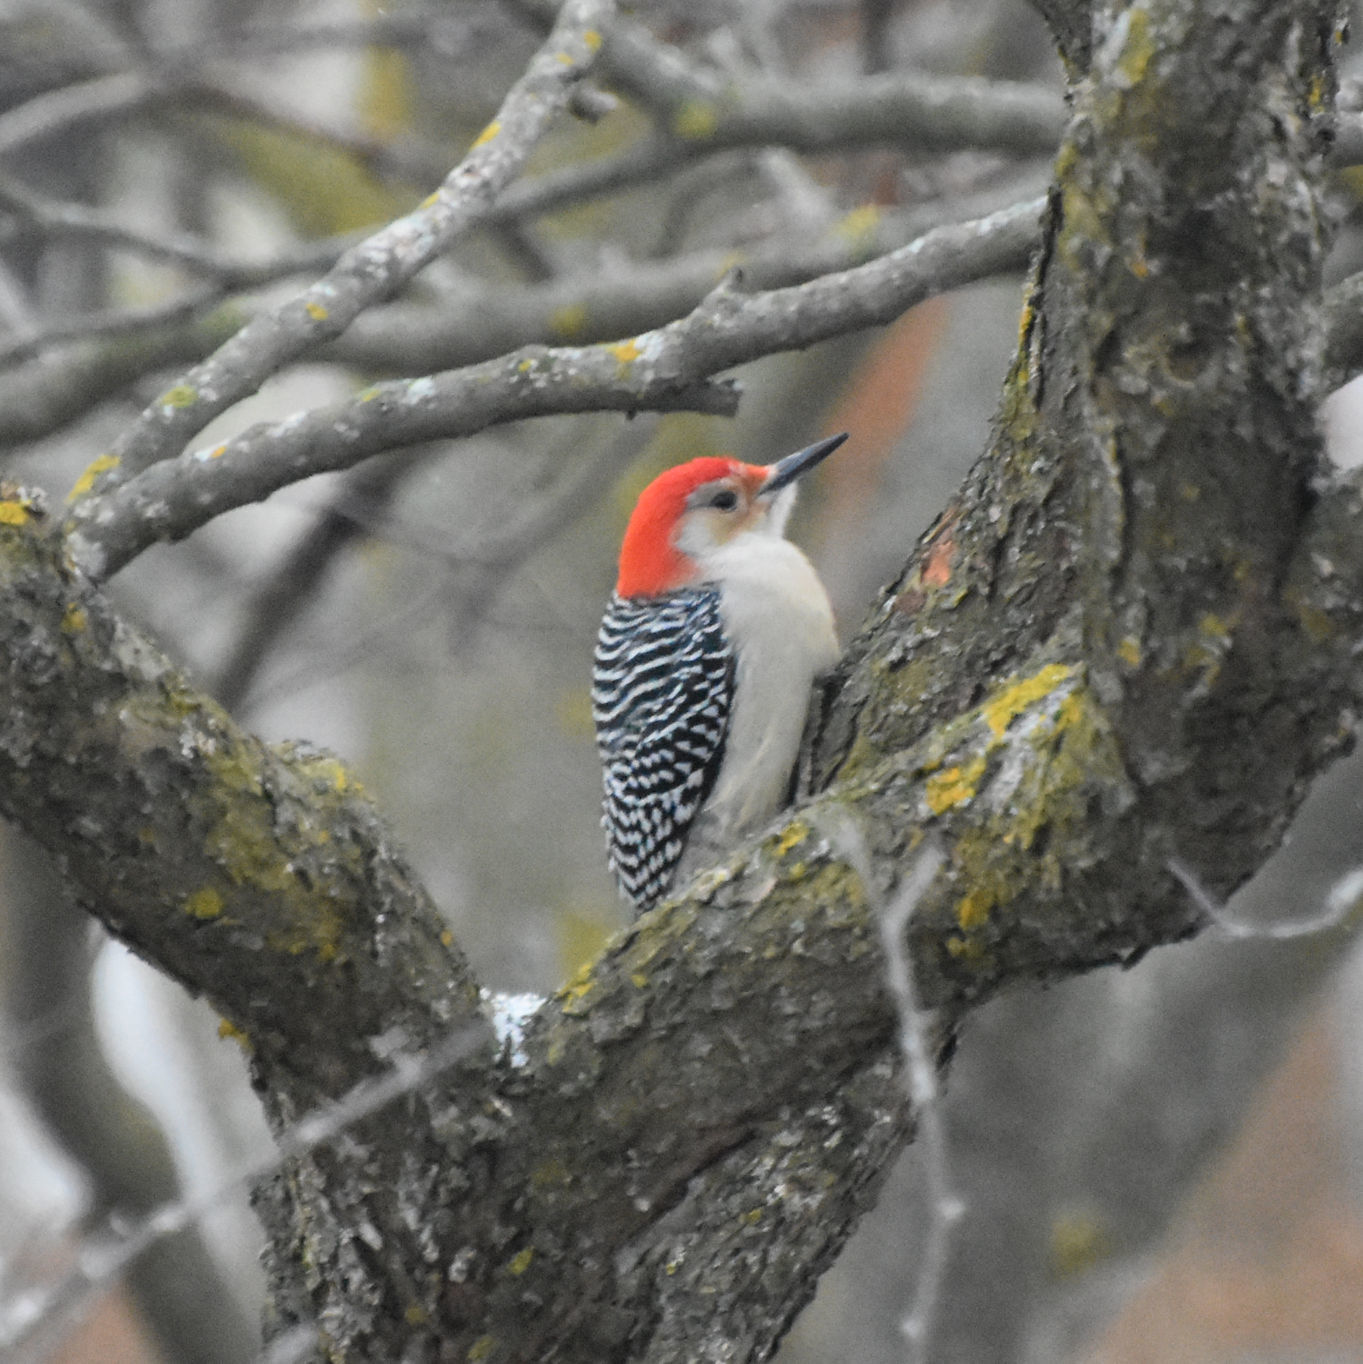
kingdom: Animalia
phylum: Chordata
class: Aves
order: Piciformes
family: Picidae
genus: Melanerpes
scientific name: Melanerpes carolinus
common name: Red-bellied woodpecker
